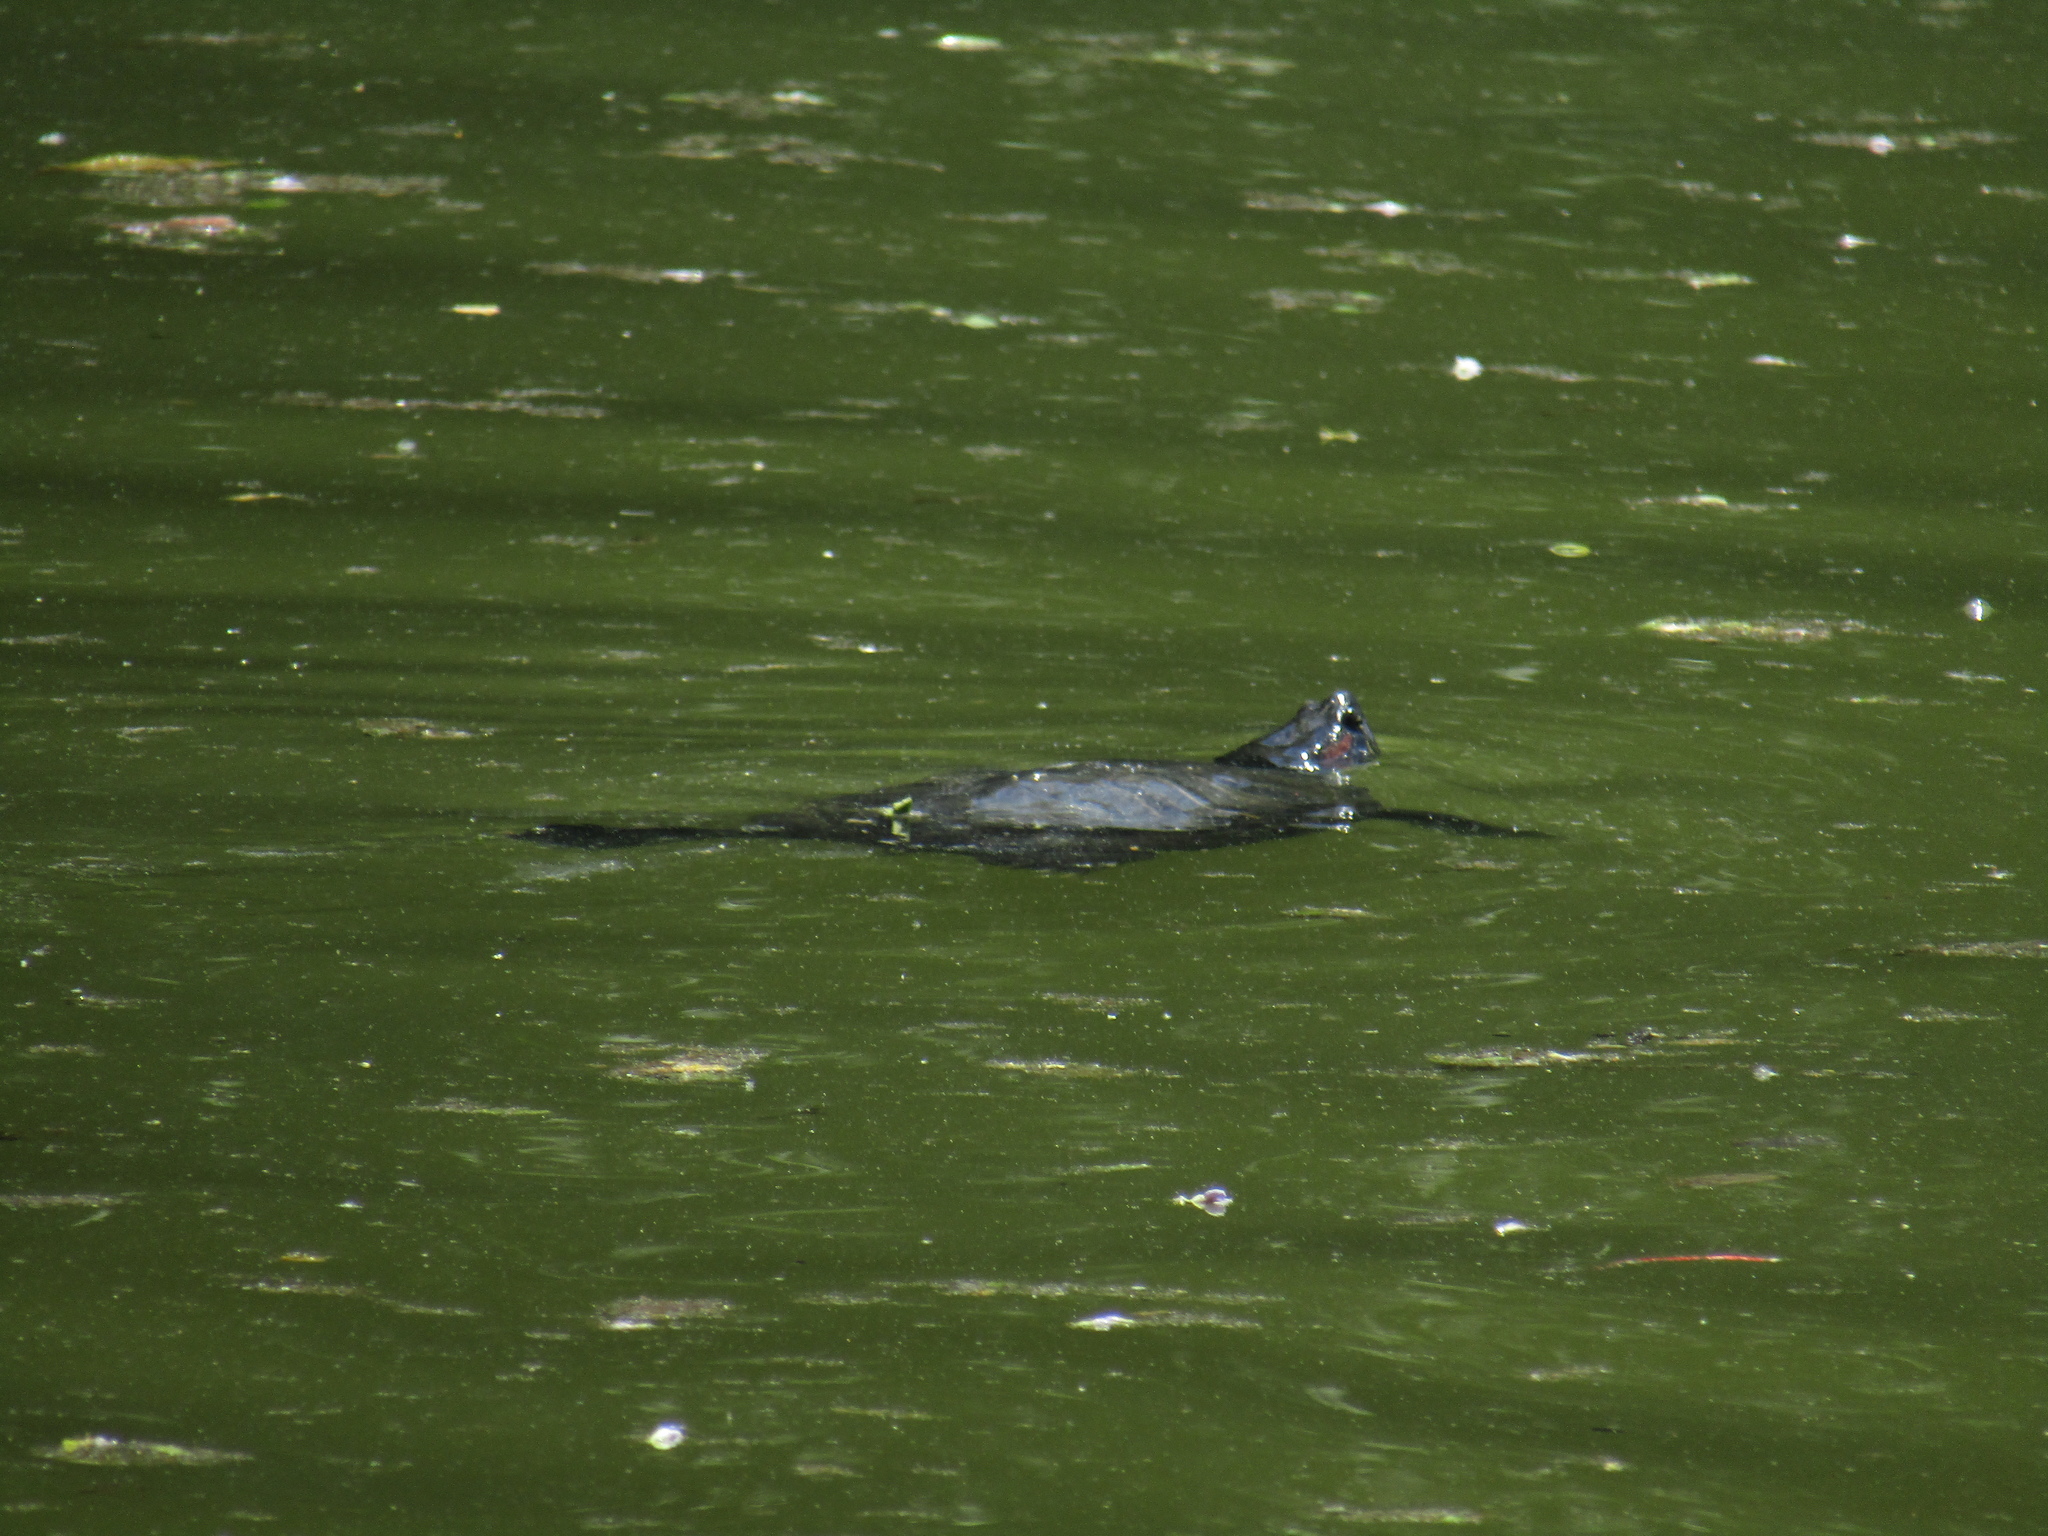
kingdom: Animalia
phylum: Chordata
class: Testudines
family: Emydidae
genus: Trachemys
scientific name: Trachemys scripta
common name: Slider
